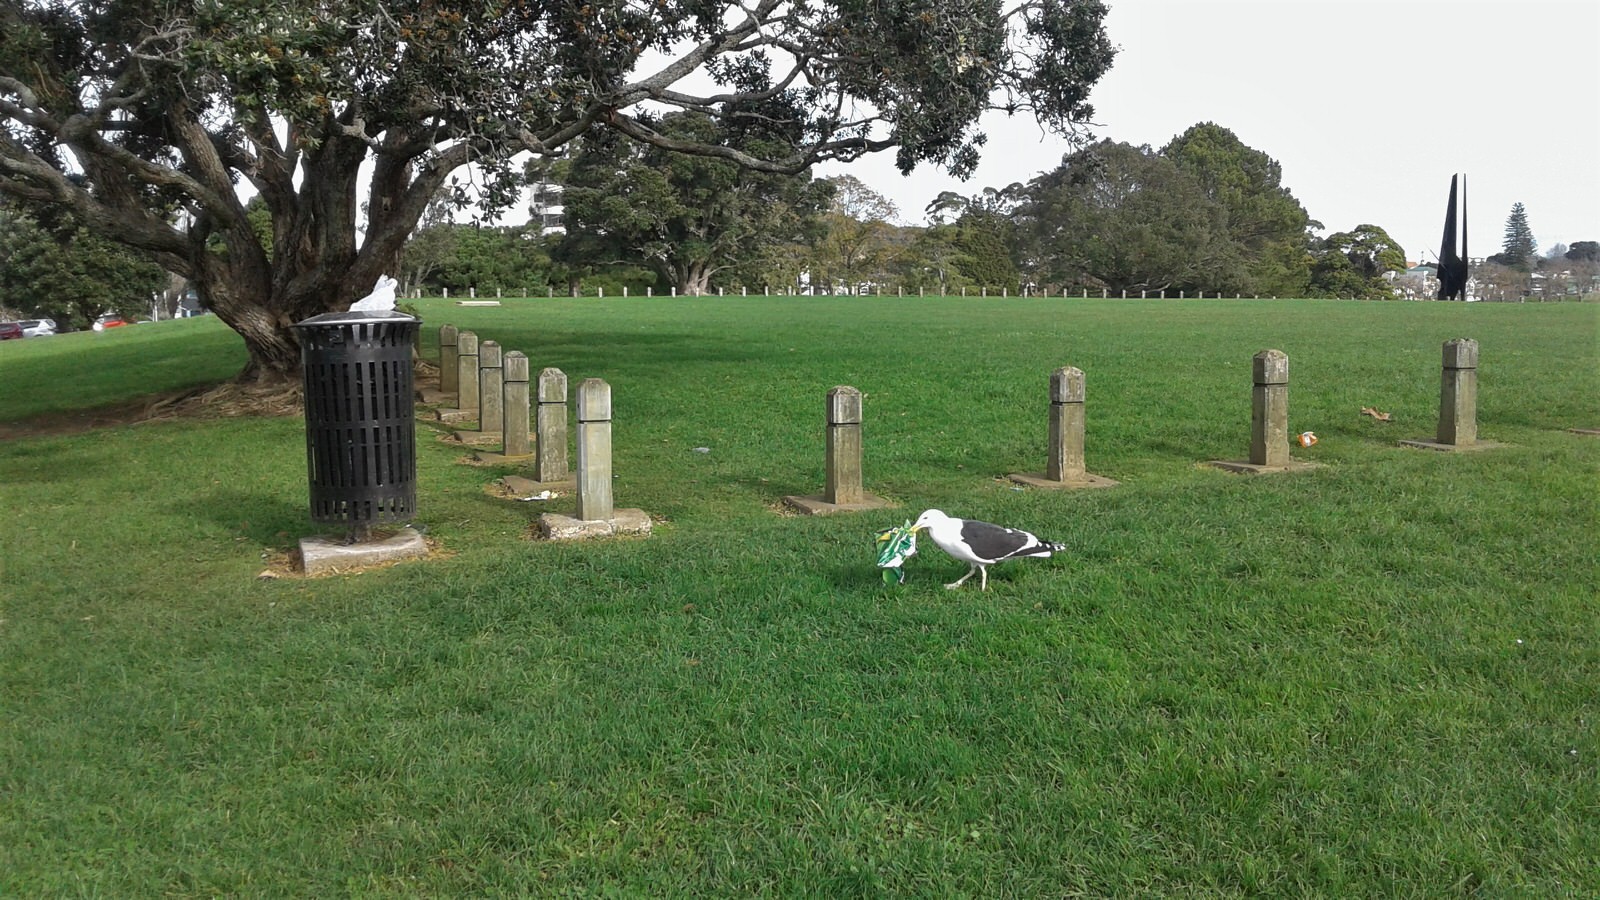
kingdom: Animalia
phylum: Chordata
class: Aves
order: Charadriiformes
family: Laridae
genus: Larus
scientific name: Larus dominicanus
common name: Kelp gull
